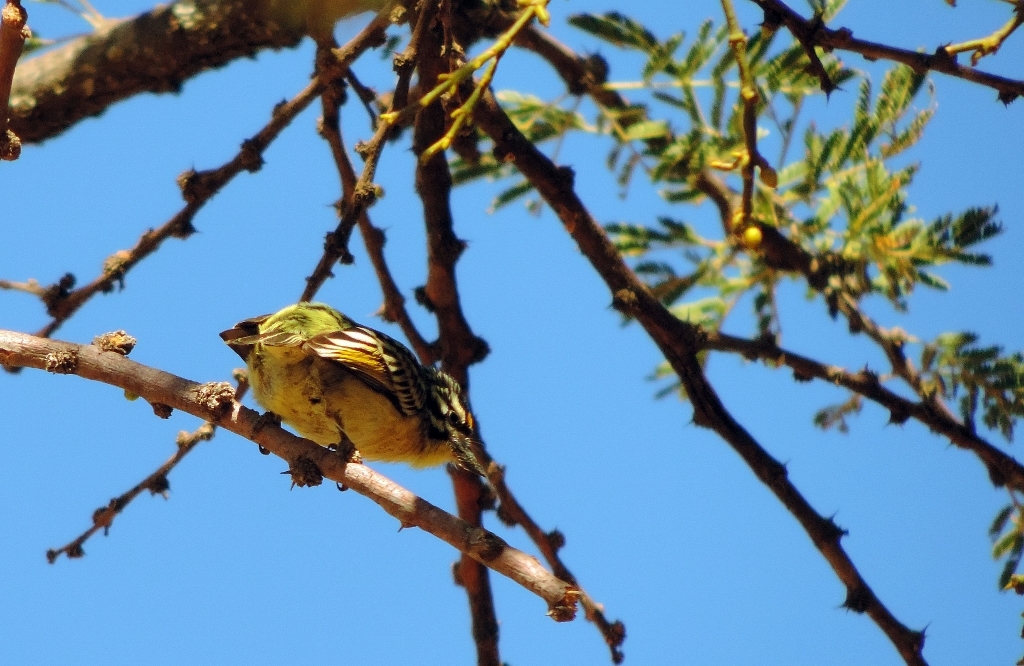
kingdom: Animalia
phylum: Chordata
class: Aves
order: Piciformes
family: Lybiidae
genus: Pogoniulus
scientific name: Pogoniulus chrysoconus
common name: Yellow-fronted tinkerbird
